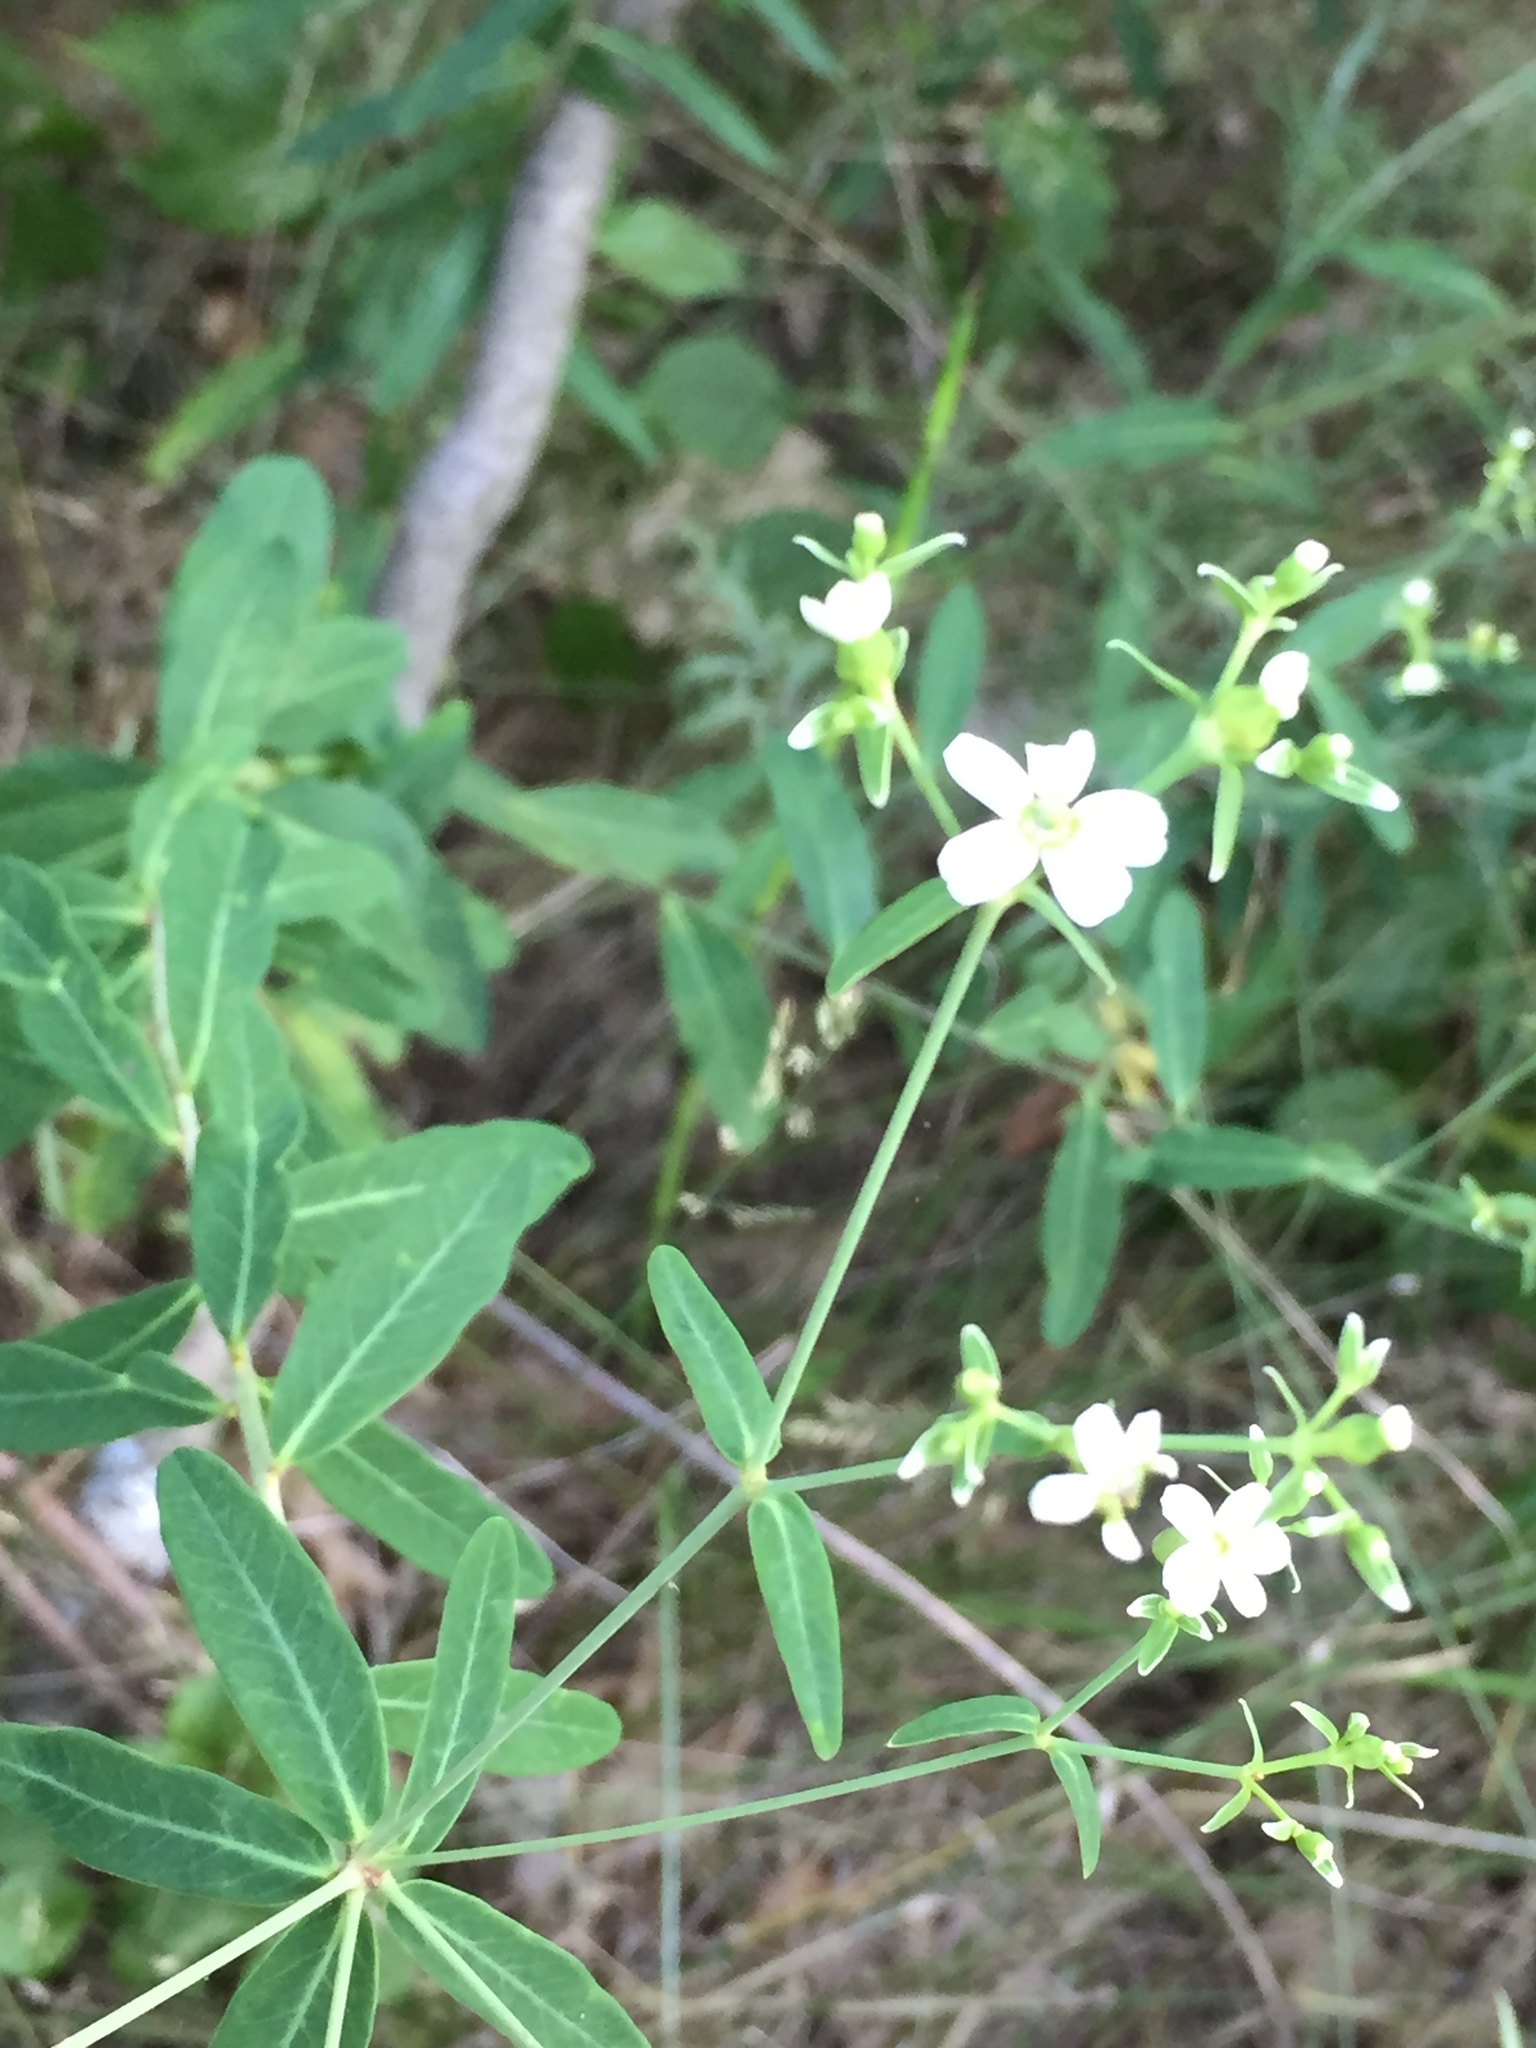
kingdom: Plantae
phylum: Tracheophyta
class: Magnoliopsida
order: Malpighiales
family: Euphorbiaceae
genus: Euphorbia
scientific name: Euphorbia corollata
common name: Flowering spurge
